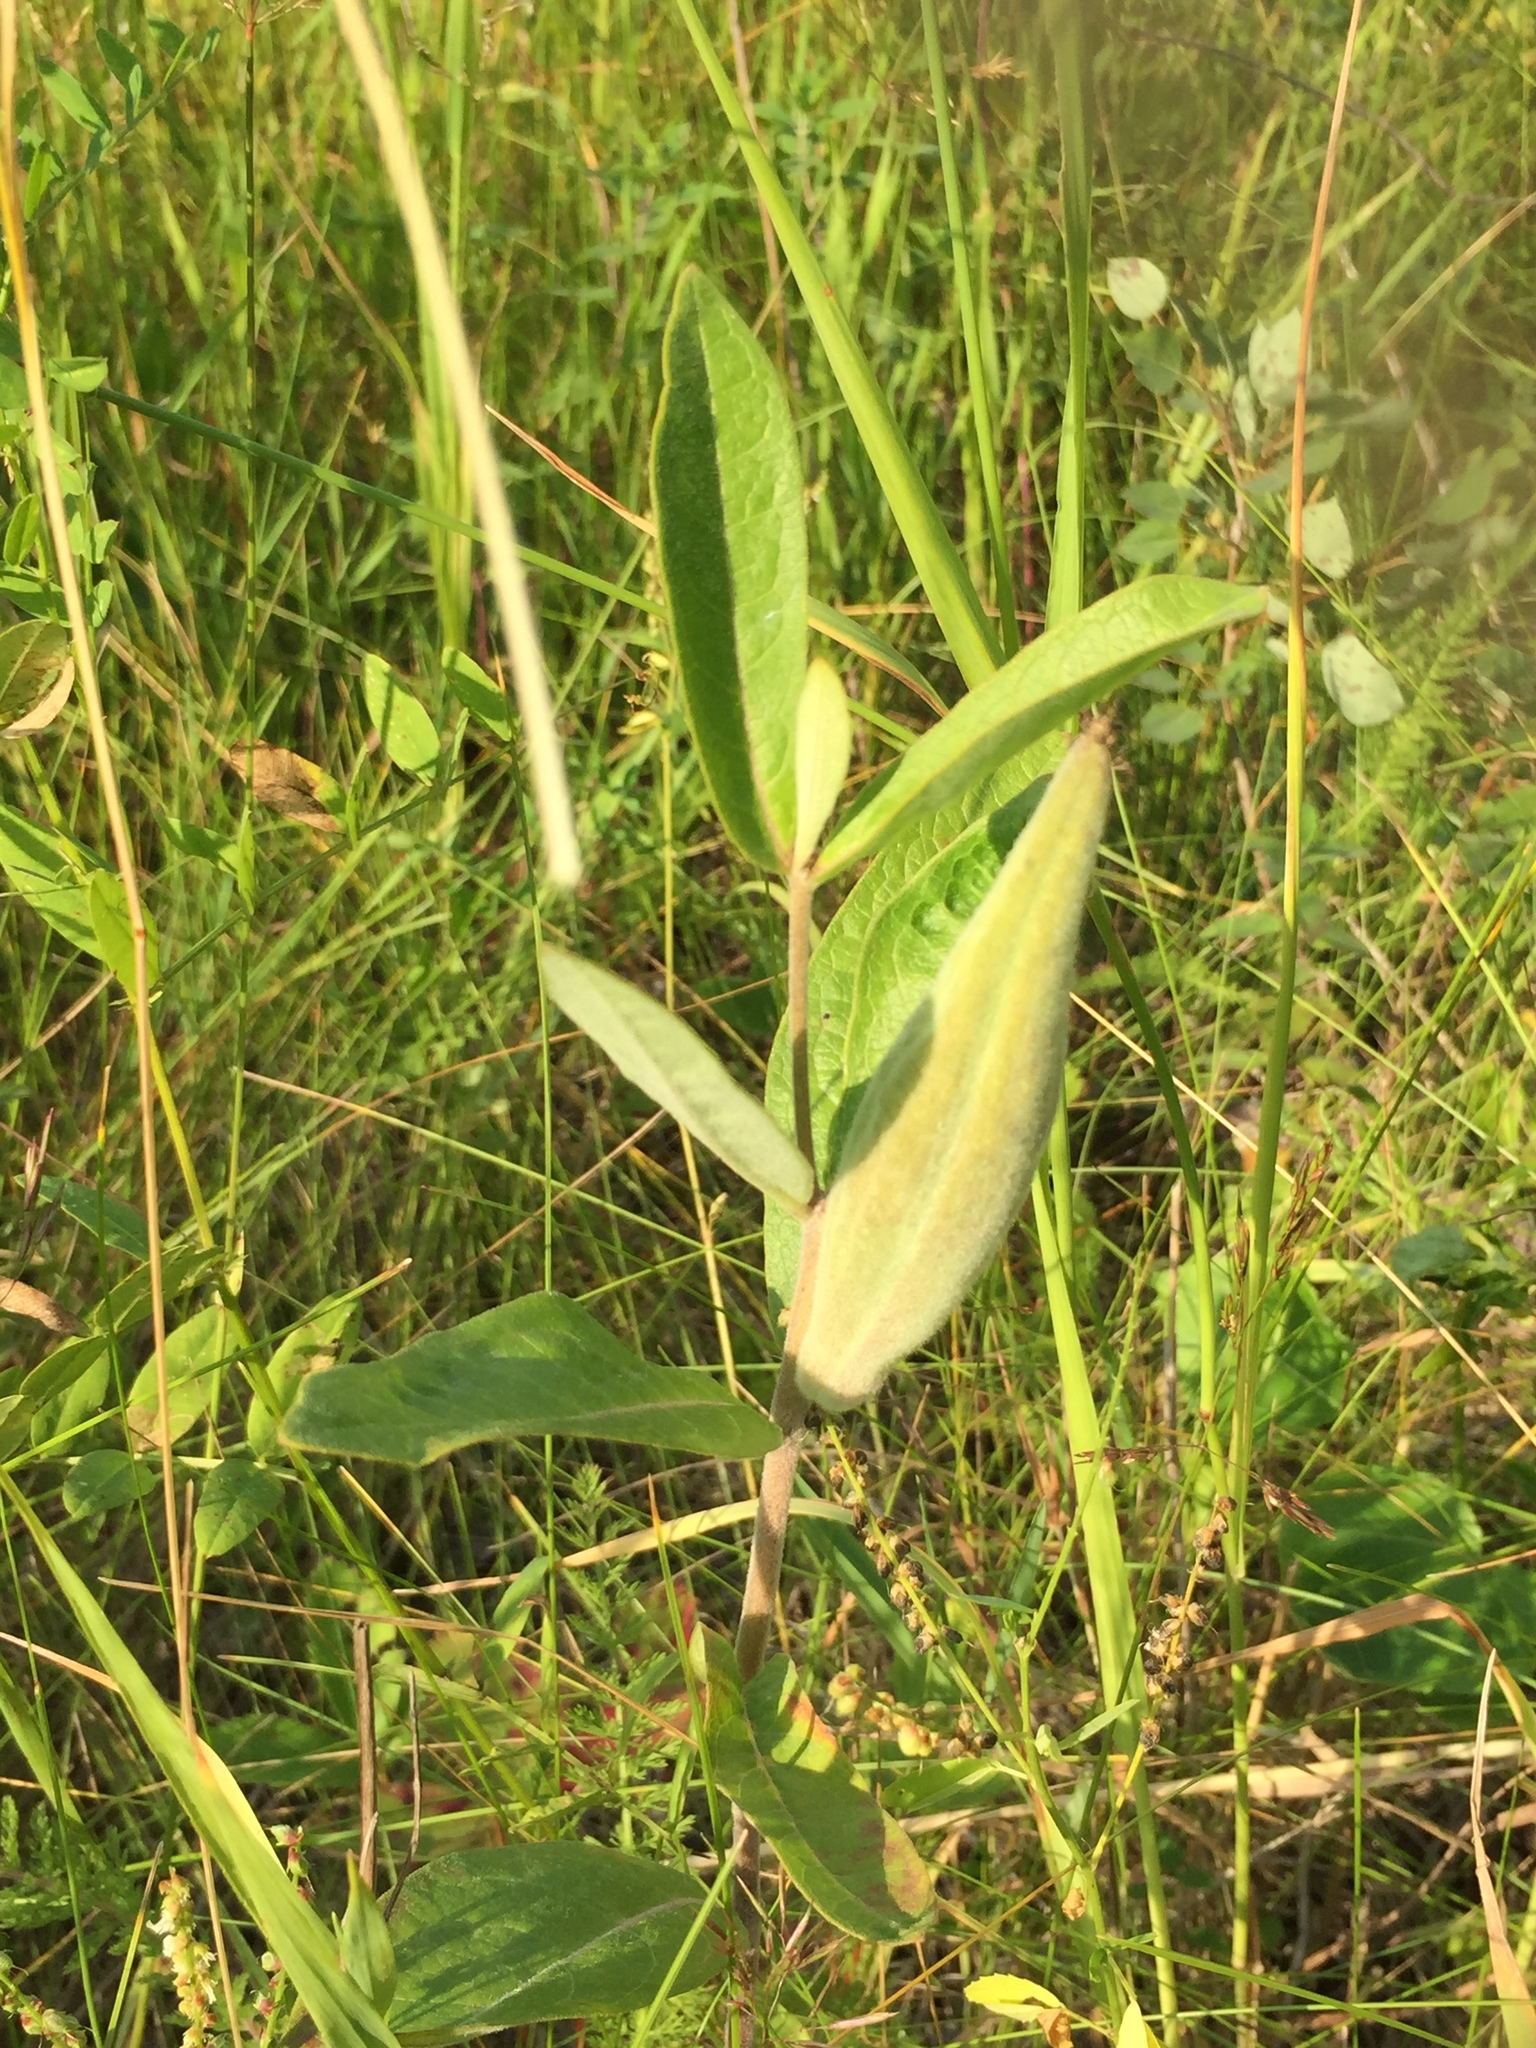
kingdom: Plantae
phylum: Tracheophyta
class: Magnoliopsida
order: Gentianales
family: Apocynaceae
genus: Asclepias
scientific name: Asclepias ovalifolia
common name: Dwarf milkweed
